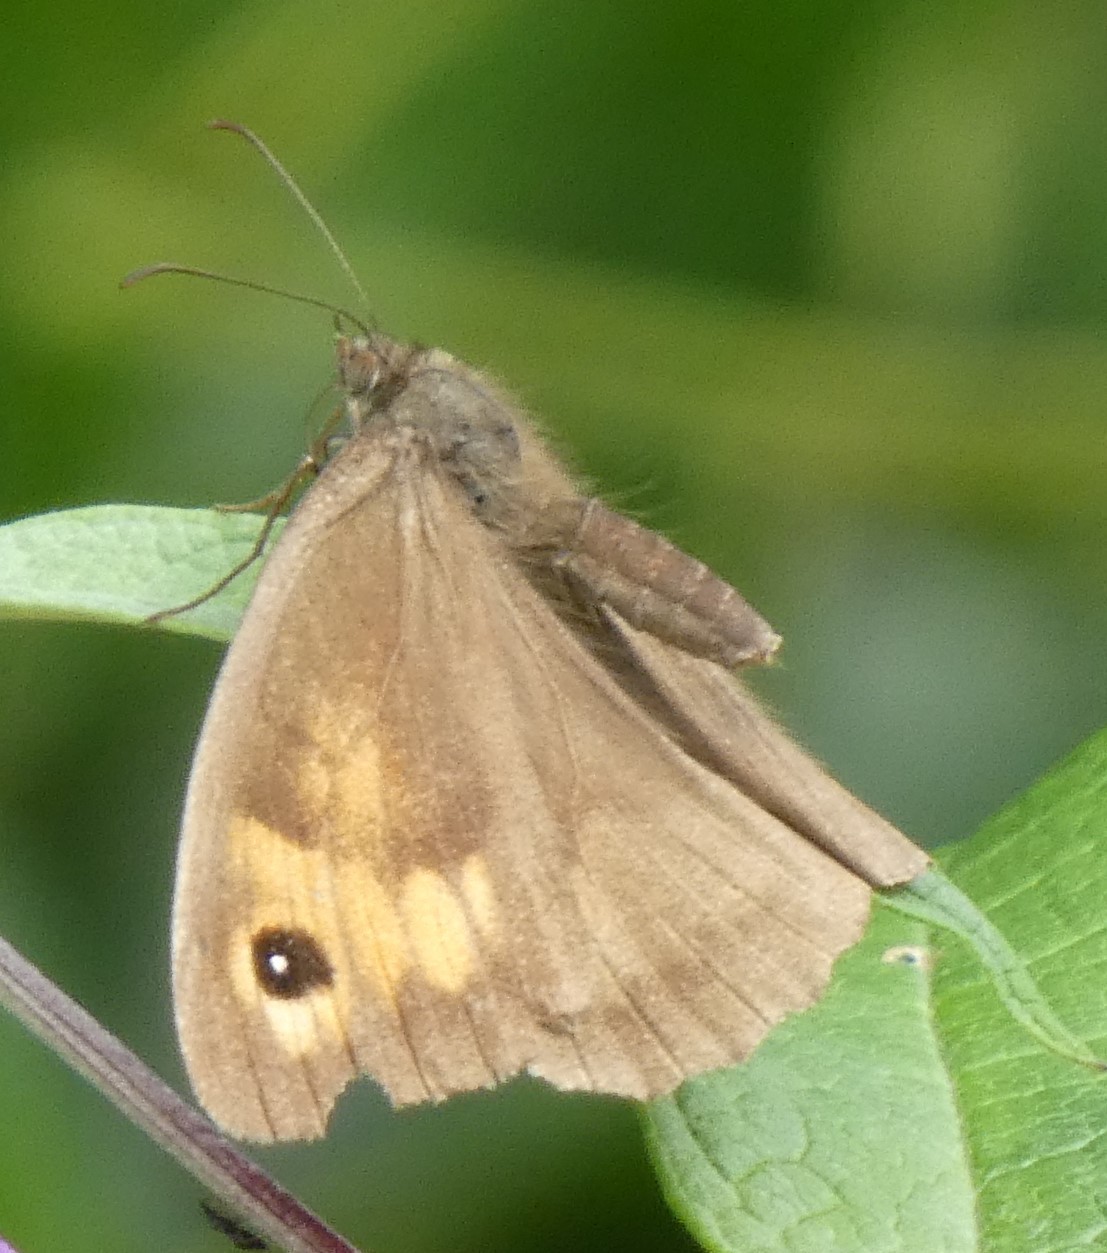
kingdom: Animalia
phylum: Arthropoda
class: Insecta
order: Lepidoptera
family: Nymphalidae
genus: Maniola
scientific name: Maniola jurtina
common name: Meadow brown
